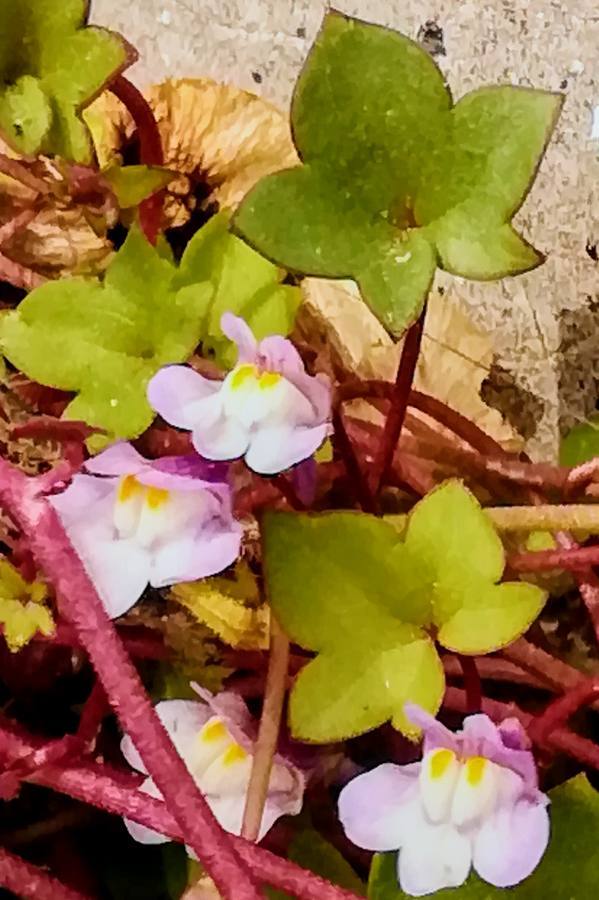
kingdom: Plantae
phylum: Tracheophyta
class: Magnoliopsida
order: Lamiales
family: Plantaginaceae
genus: Cymbalaria
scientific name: Cymbalaria muralis
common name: Ivy-leaved toadflax
